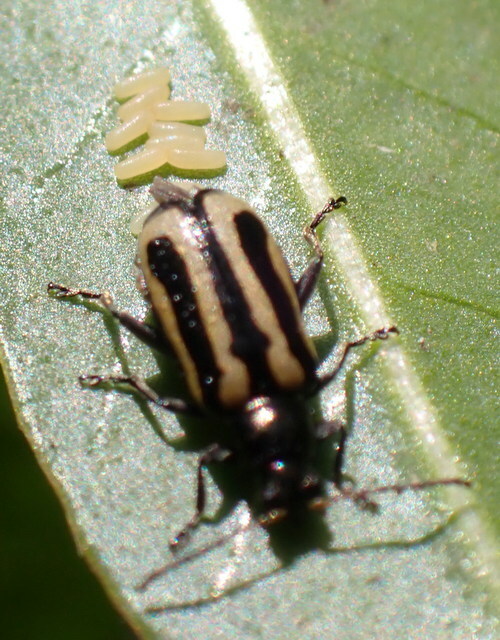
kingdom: Animalia
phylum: Arthropoda
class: Insecta
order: Coleoptera
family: Chrysomelidae
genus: Agasicles
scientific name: Agasicles hygrophila
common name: Alligatorweed flea beetle
